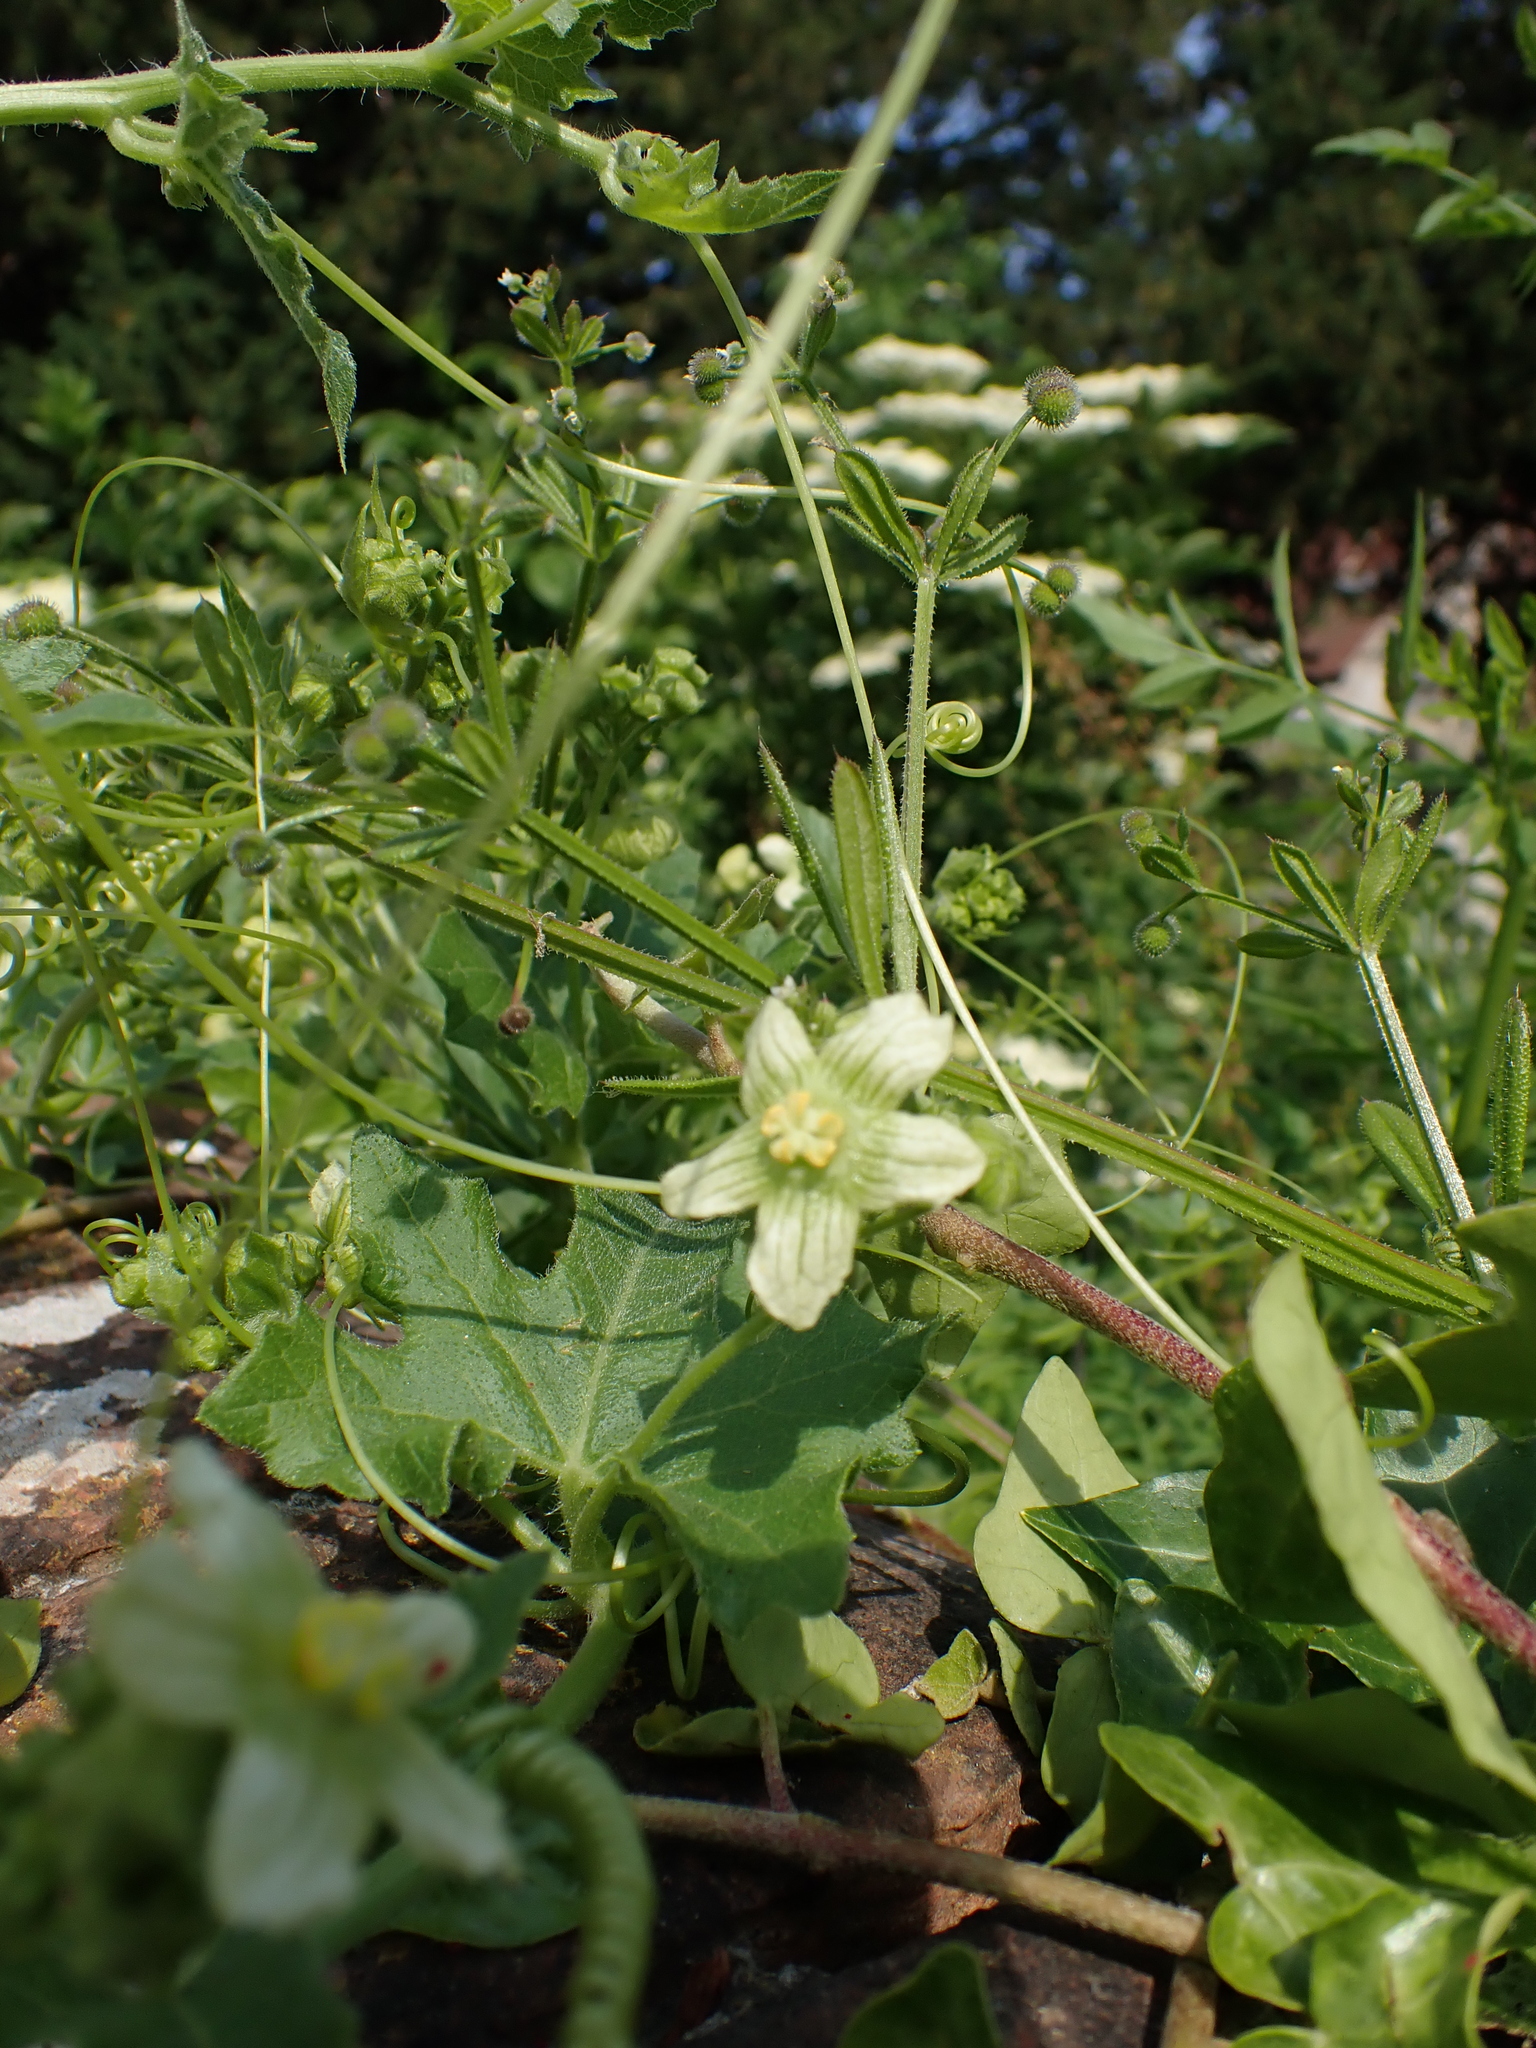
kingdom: Plantae
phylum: Tracheophyta
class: Magnoliopsida
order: Cucurbitales
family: Cucurbitaceae
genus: Bryonia
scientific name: Bryonia cretica
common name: Cretan bryony
